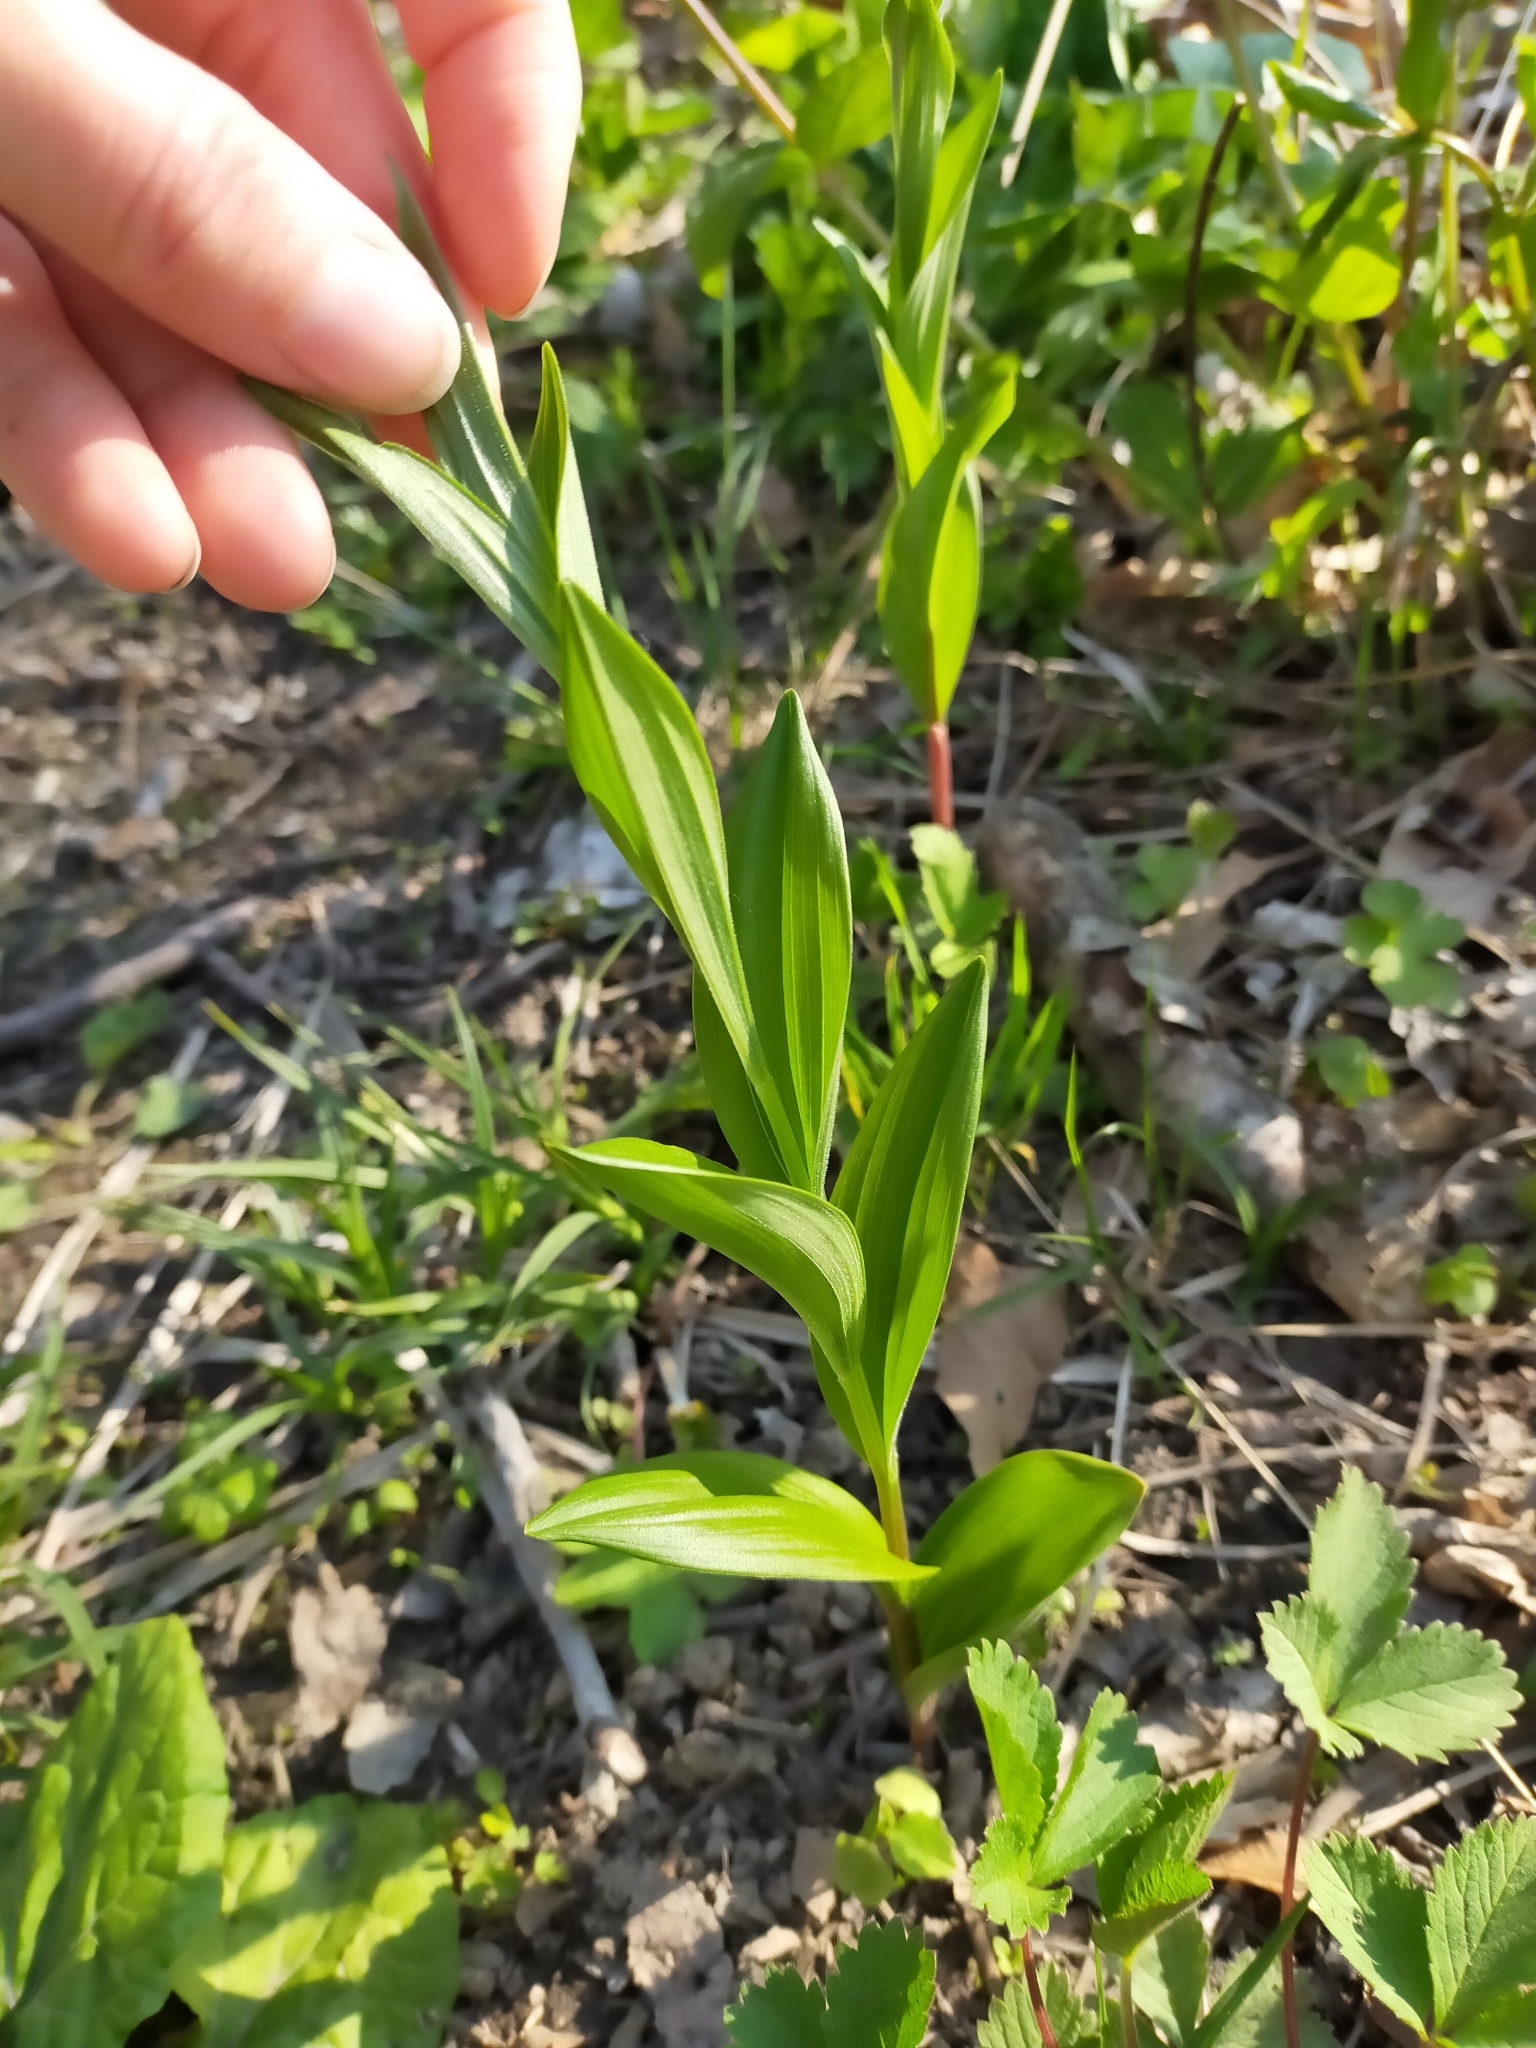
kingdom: Plantae
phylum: Tracheophyta
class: Liliopsida
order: Asparagales
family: Asparagaceae
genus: Polygonatum
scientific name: Polygonatum humile
